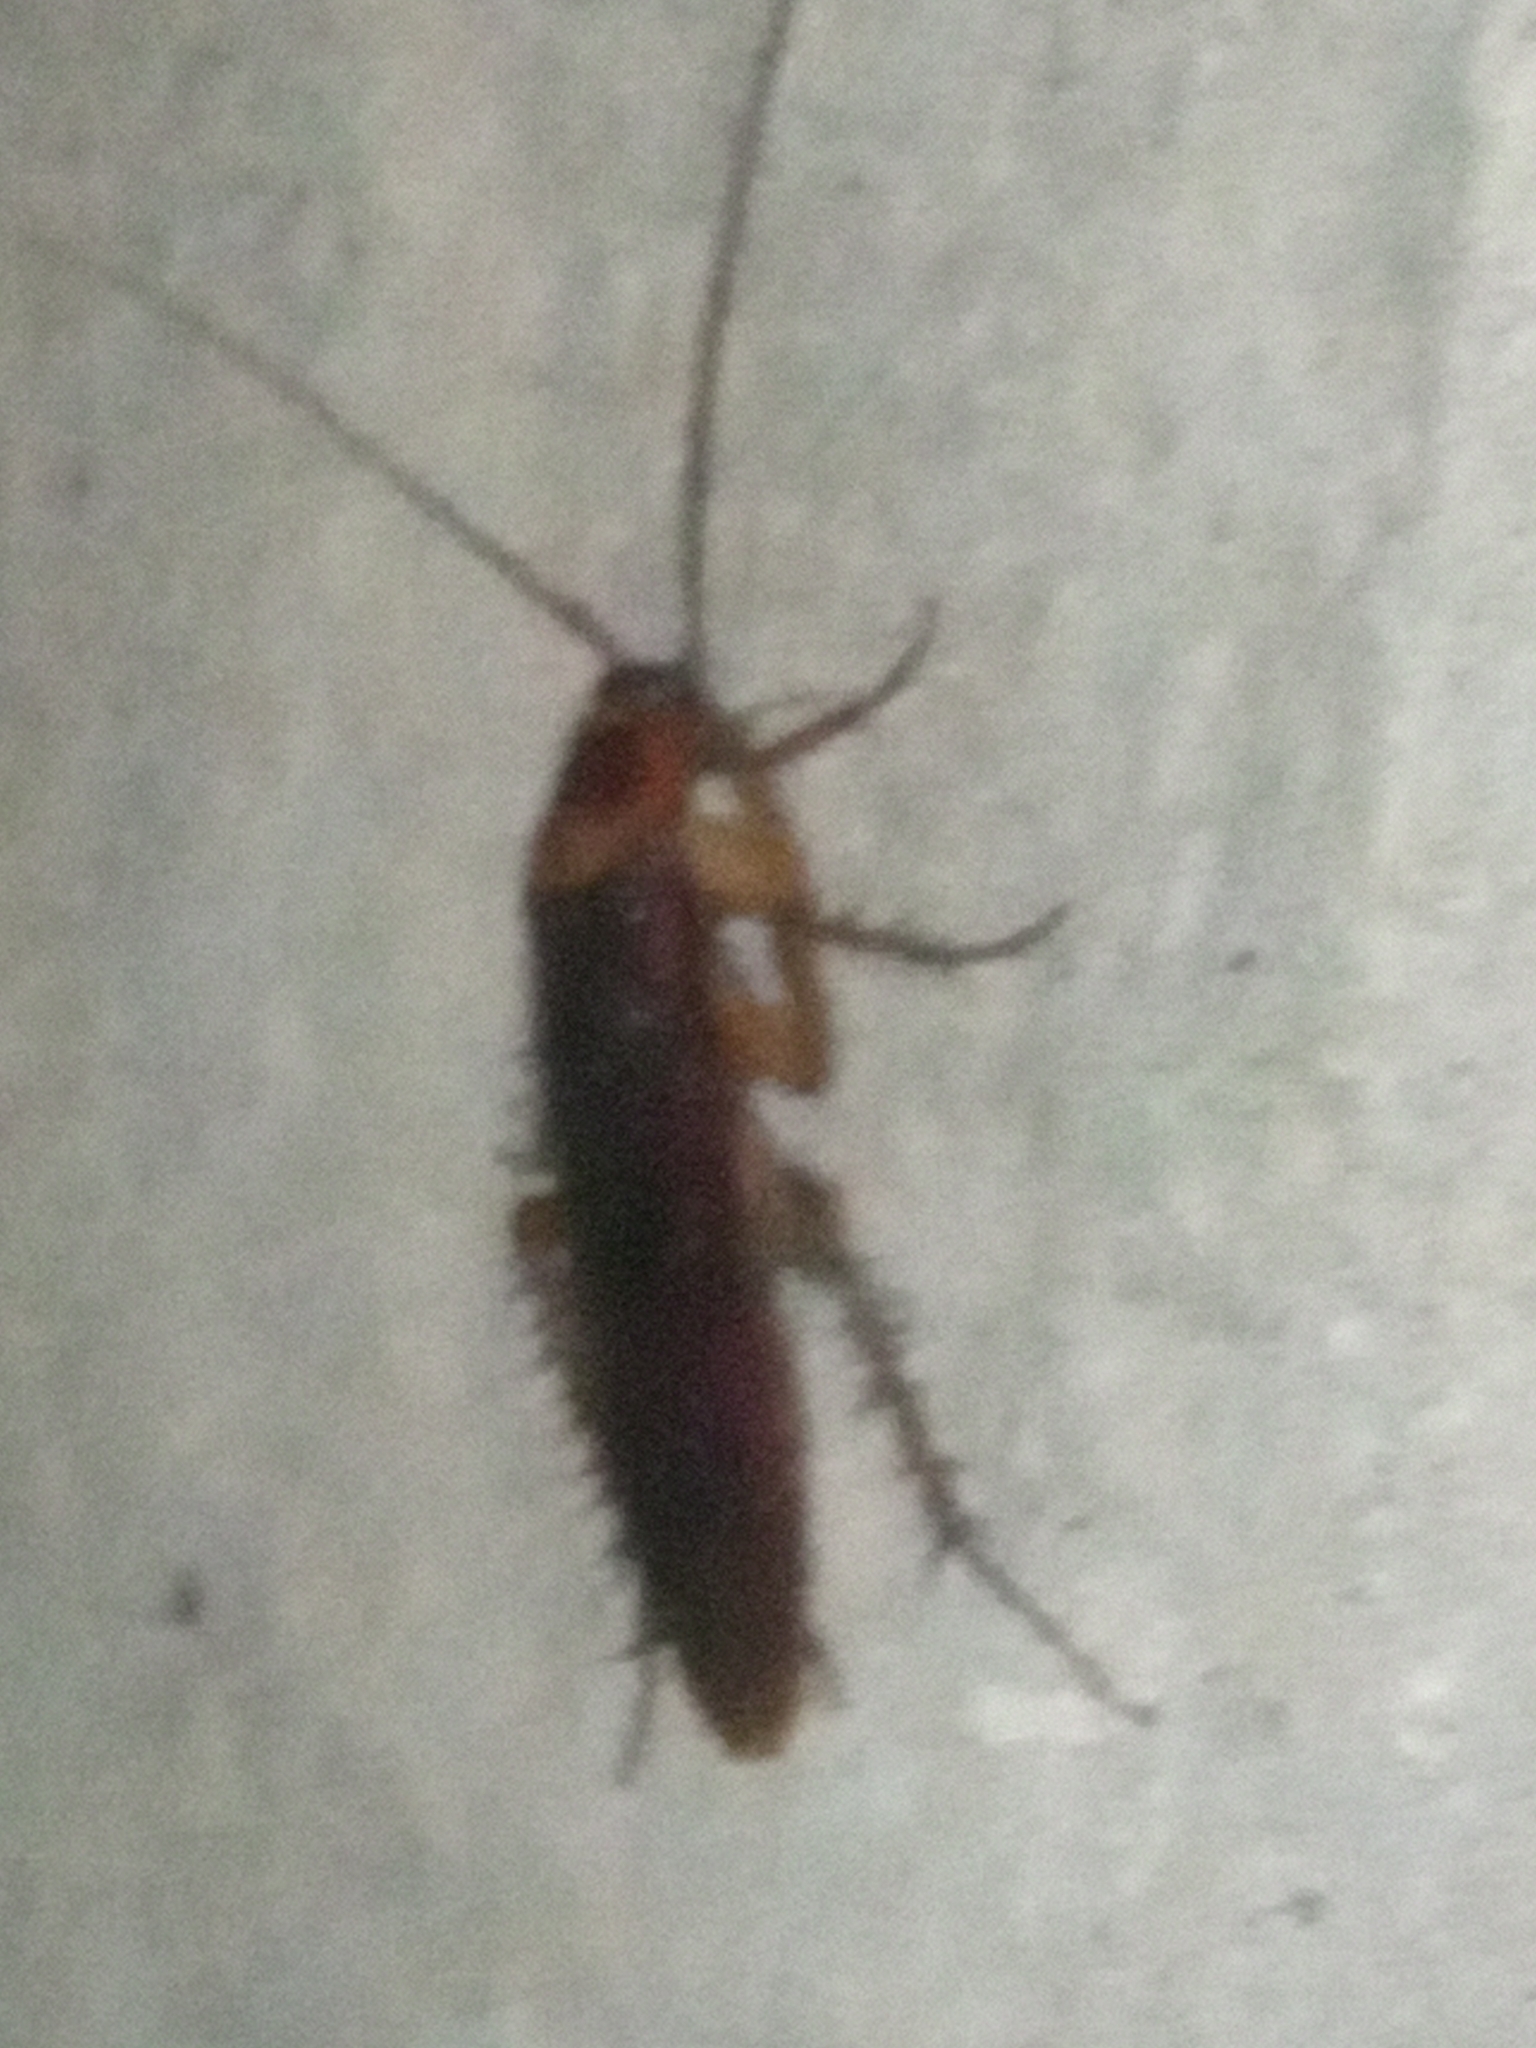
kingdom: Animalia
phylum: Arthropoda
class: Insecta
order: Blattodea
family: Blattidae
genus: Periplaneta
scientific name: Periplaneta americana
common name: American cockroach
